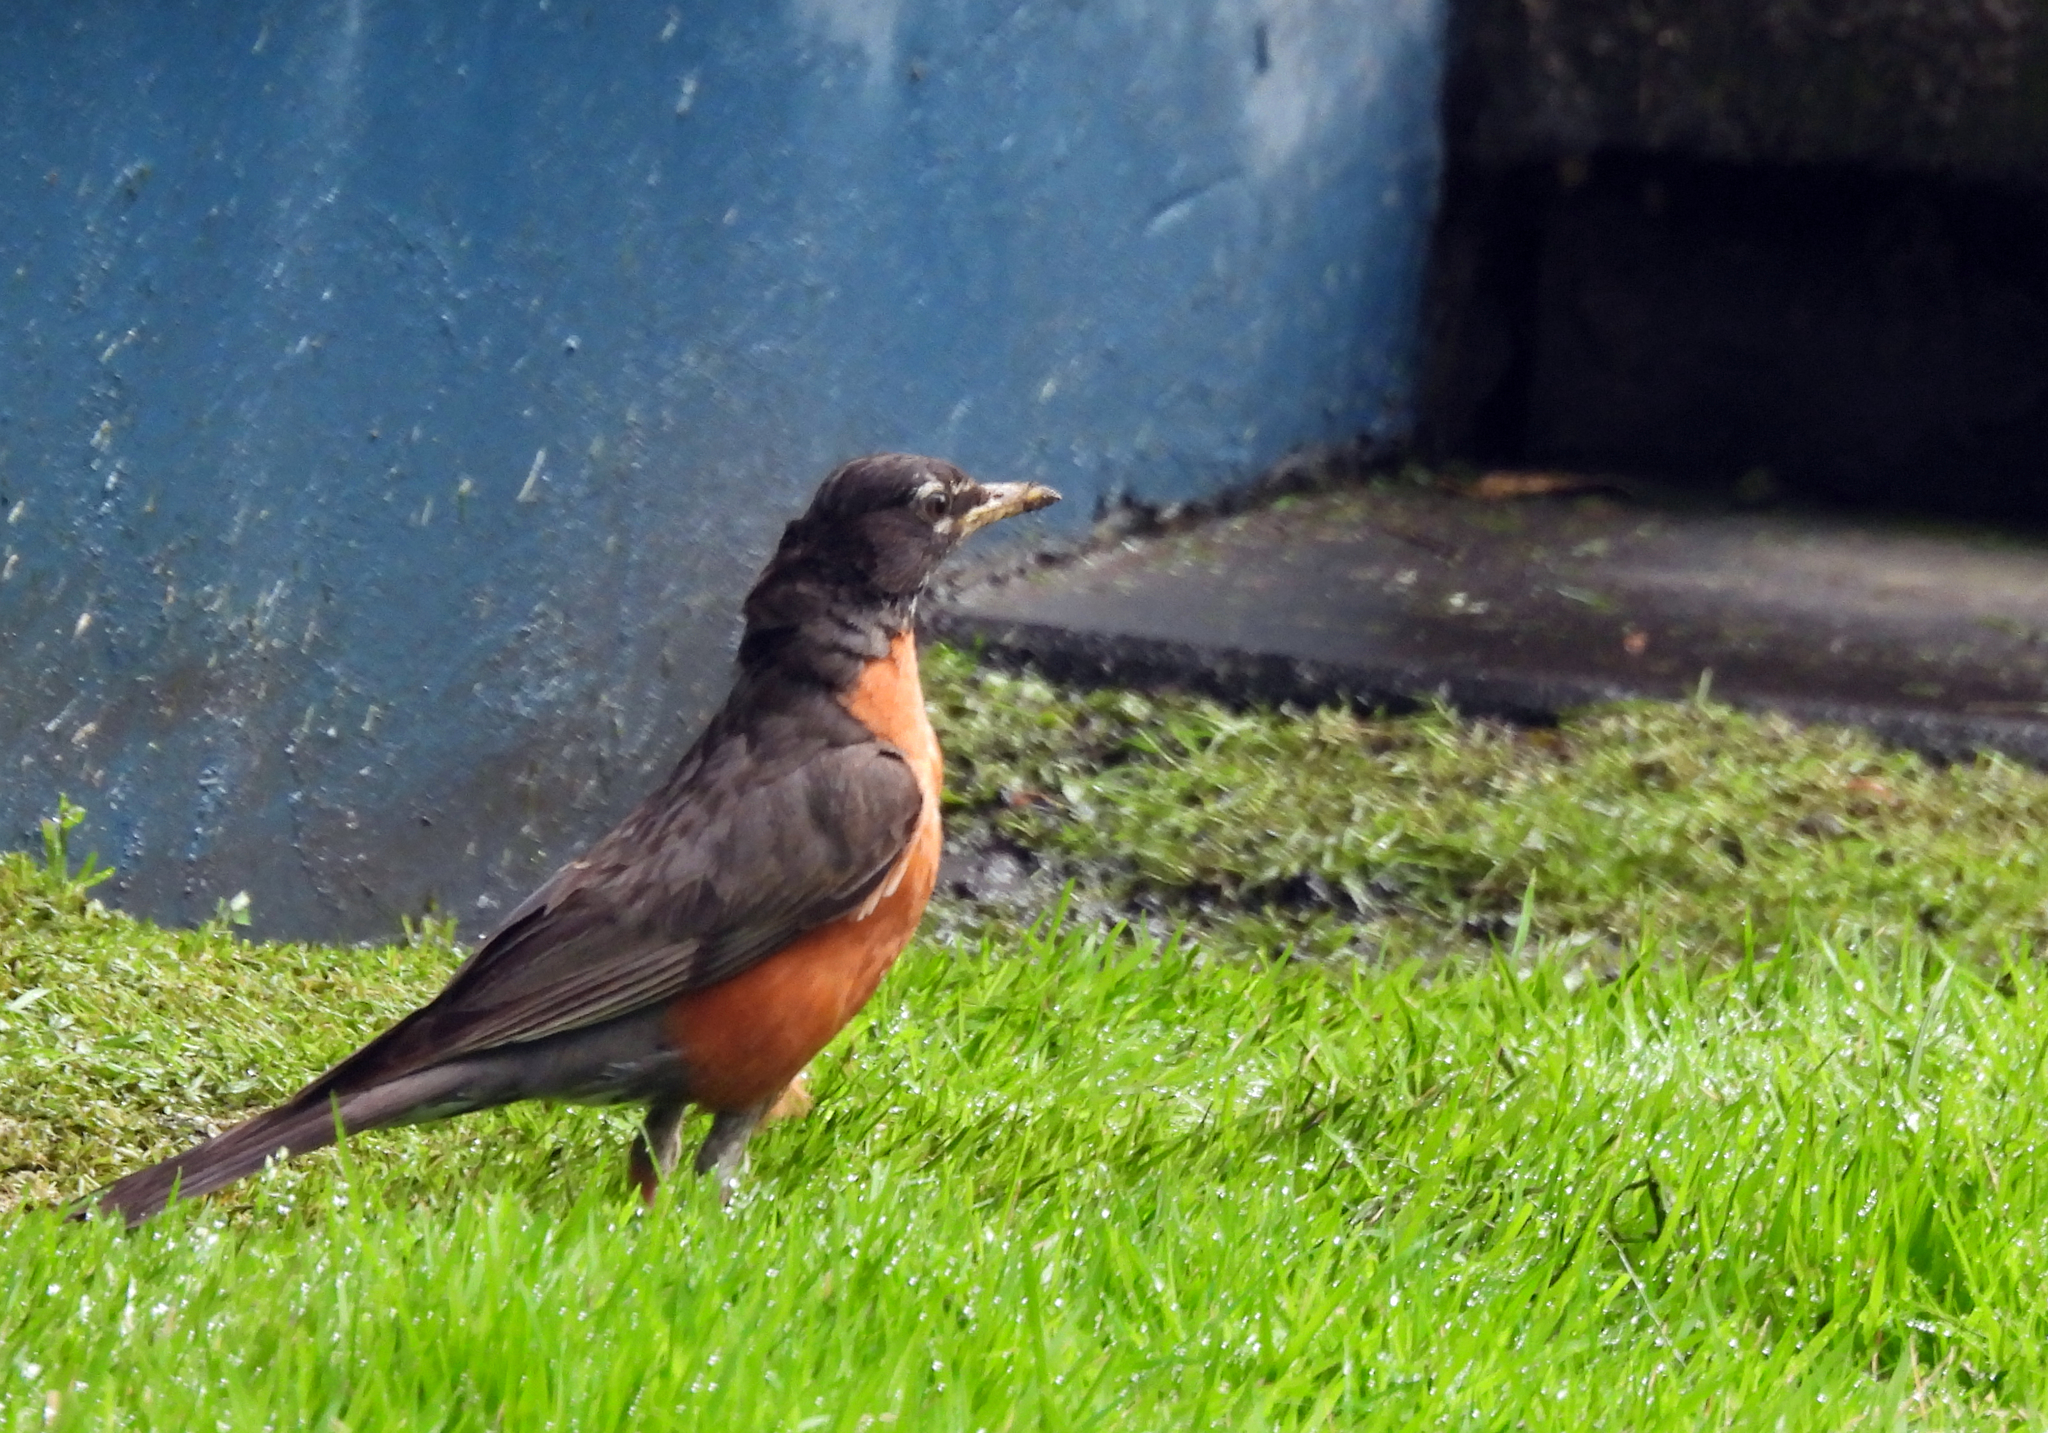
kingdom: Animalia
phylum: Chordata
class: Aves
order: Passeriformes
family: Turdidae
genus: Turdus
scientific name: Turdus migratorius
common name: American robin
